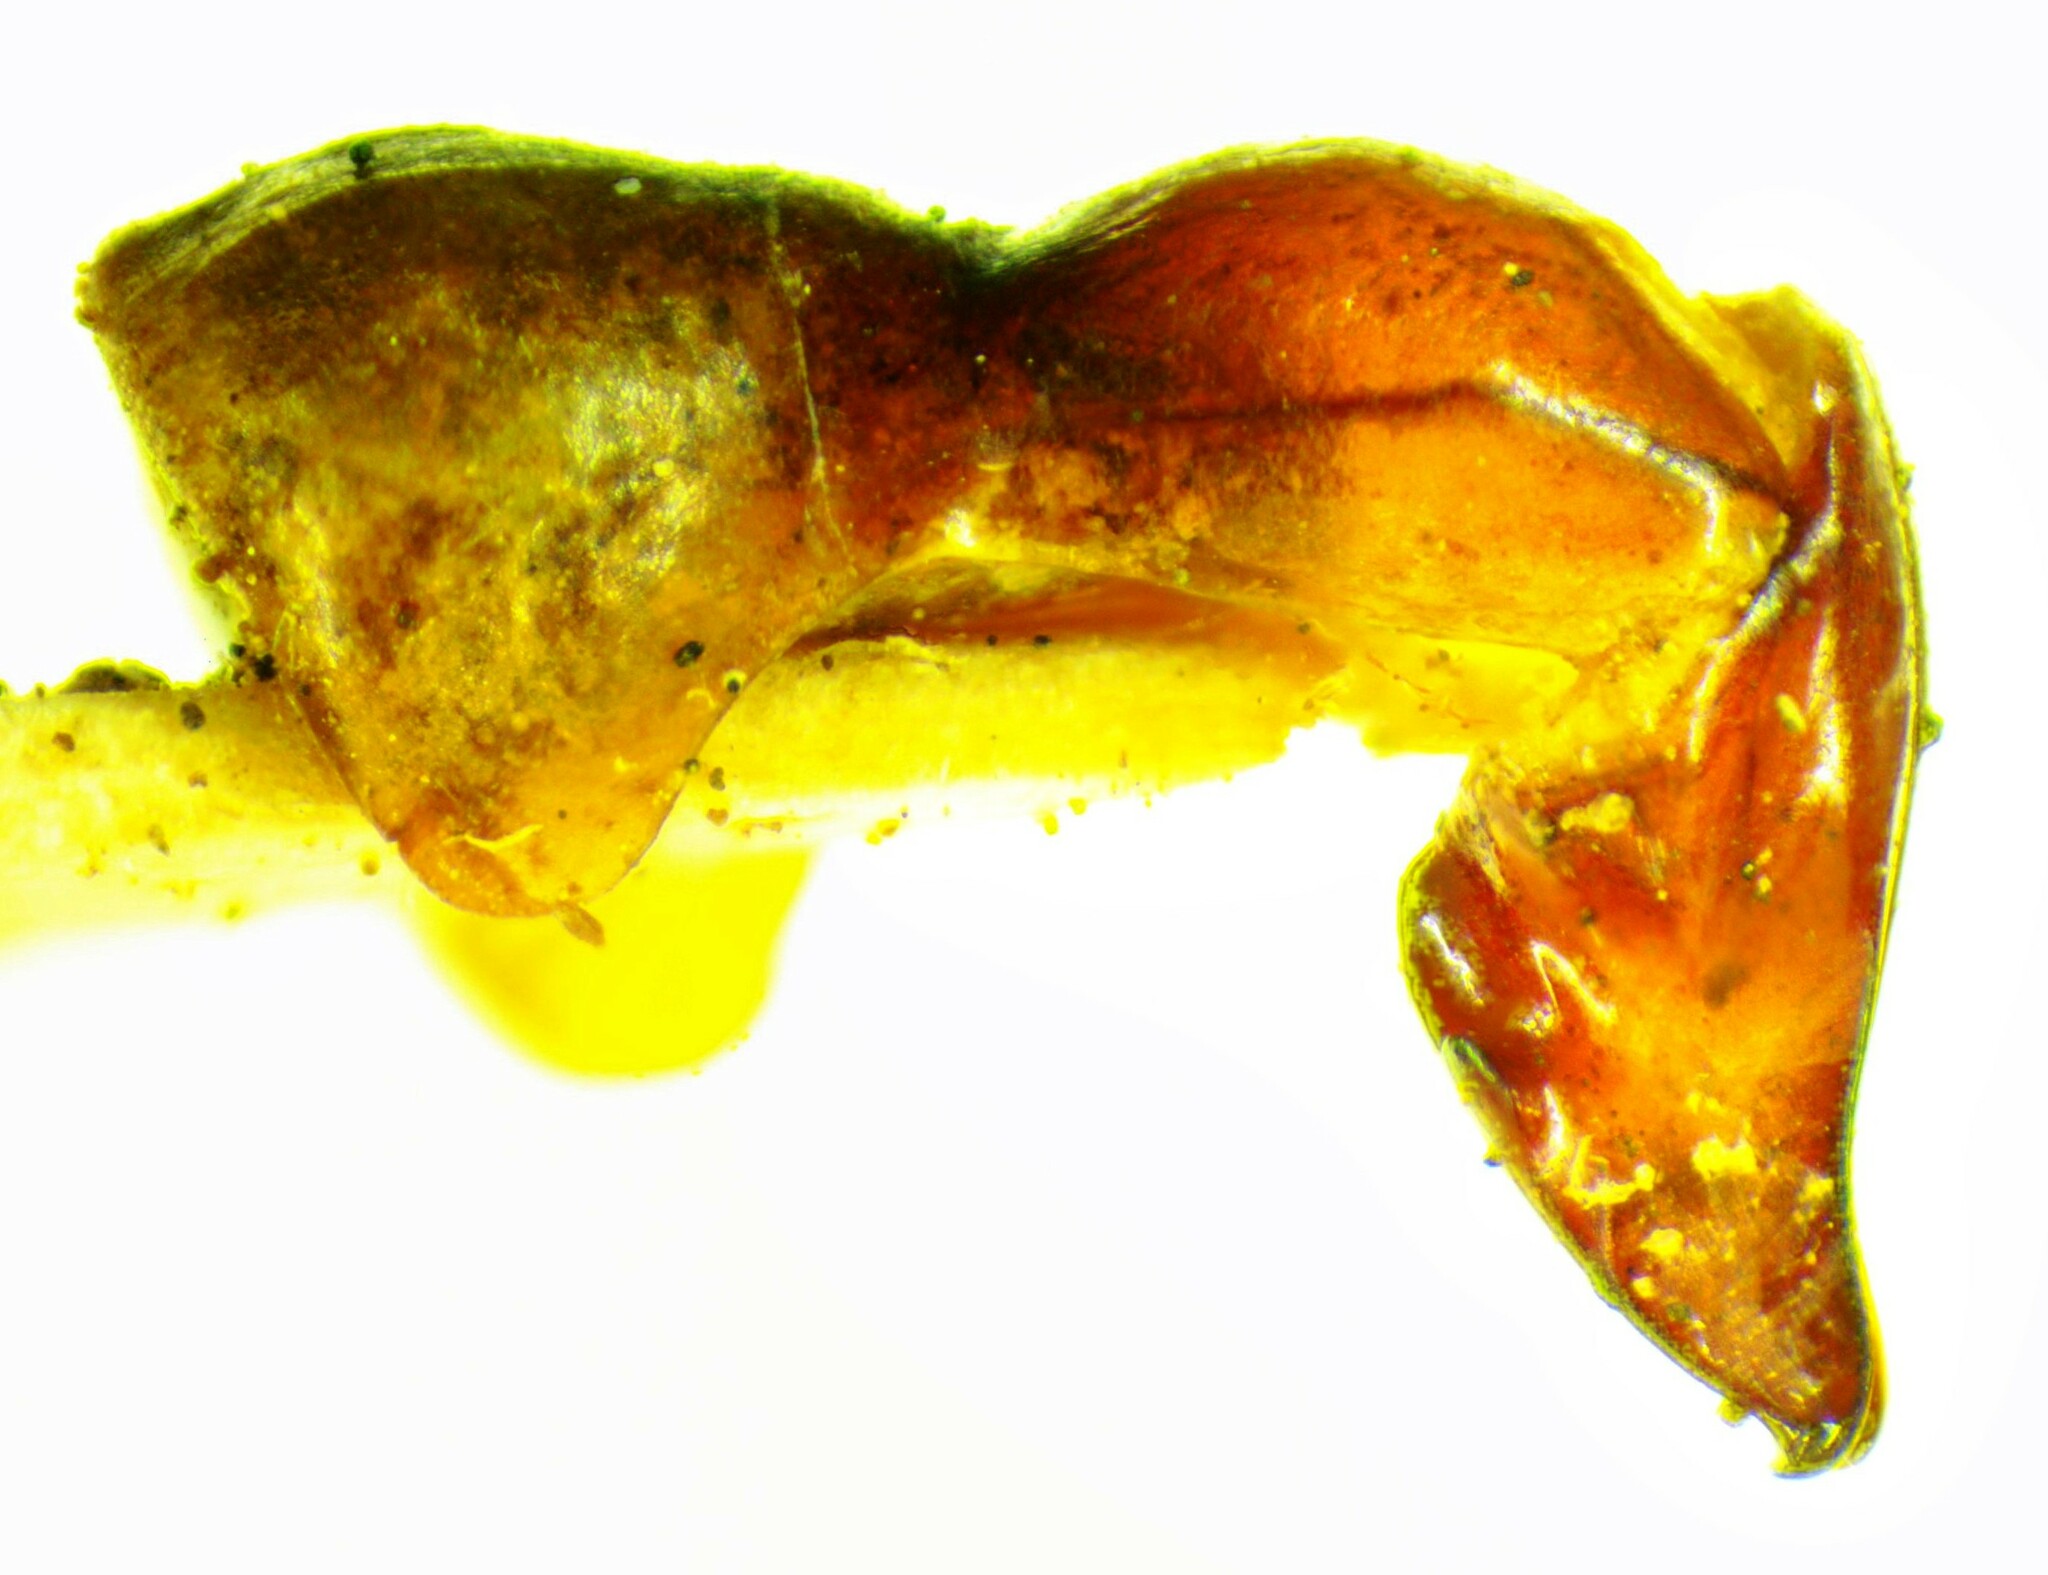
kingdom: Animalia
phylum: Arthropoda
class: Insecta
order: Coleoptera
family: Scarabaeidae
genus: Oxyligyrus
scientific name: Oxyligyrus zoilus
